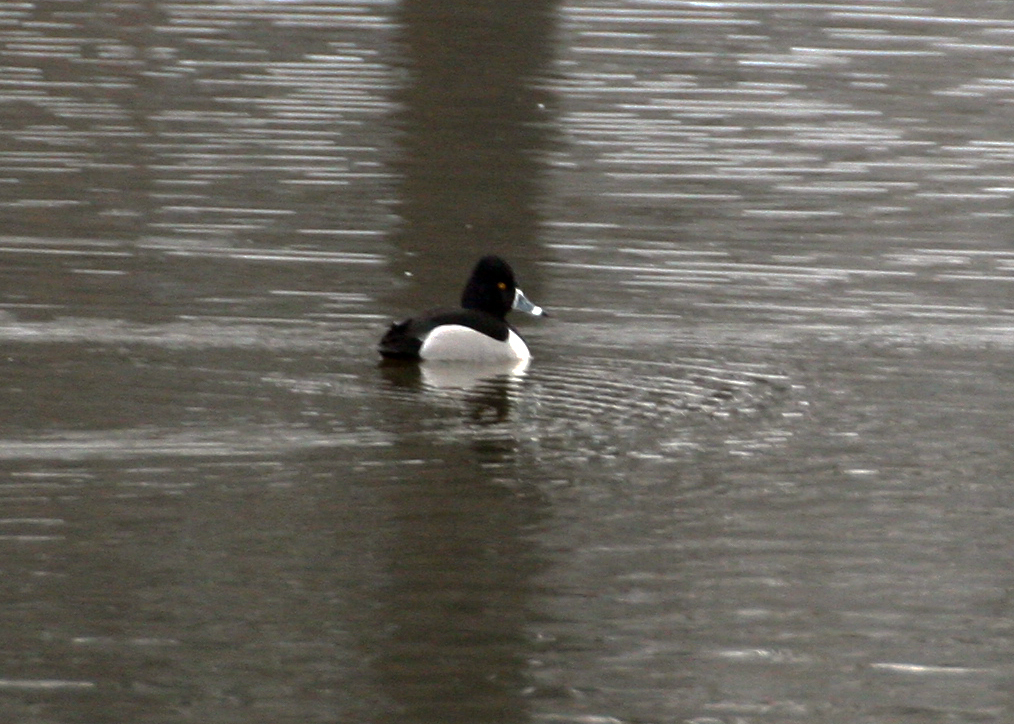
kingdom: Animalia
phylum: Chordata
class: Aves
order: Anseriformes
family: Anatidae
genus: Aythya
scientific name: Aythya collaris
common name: Ring-necked duck
